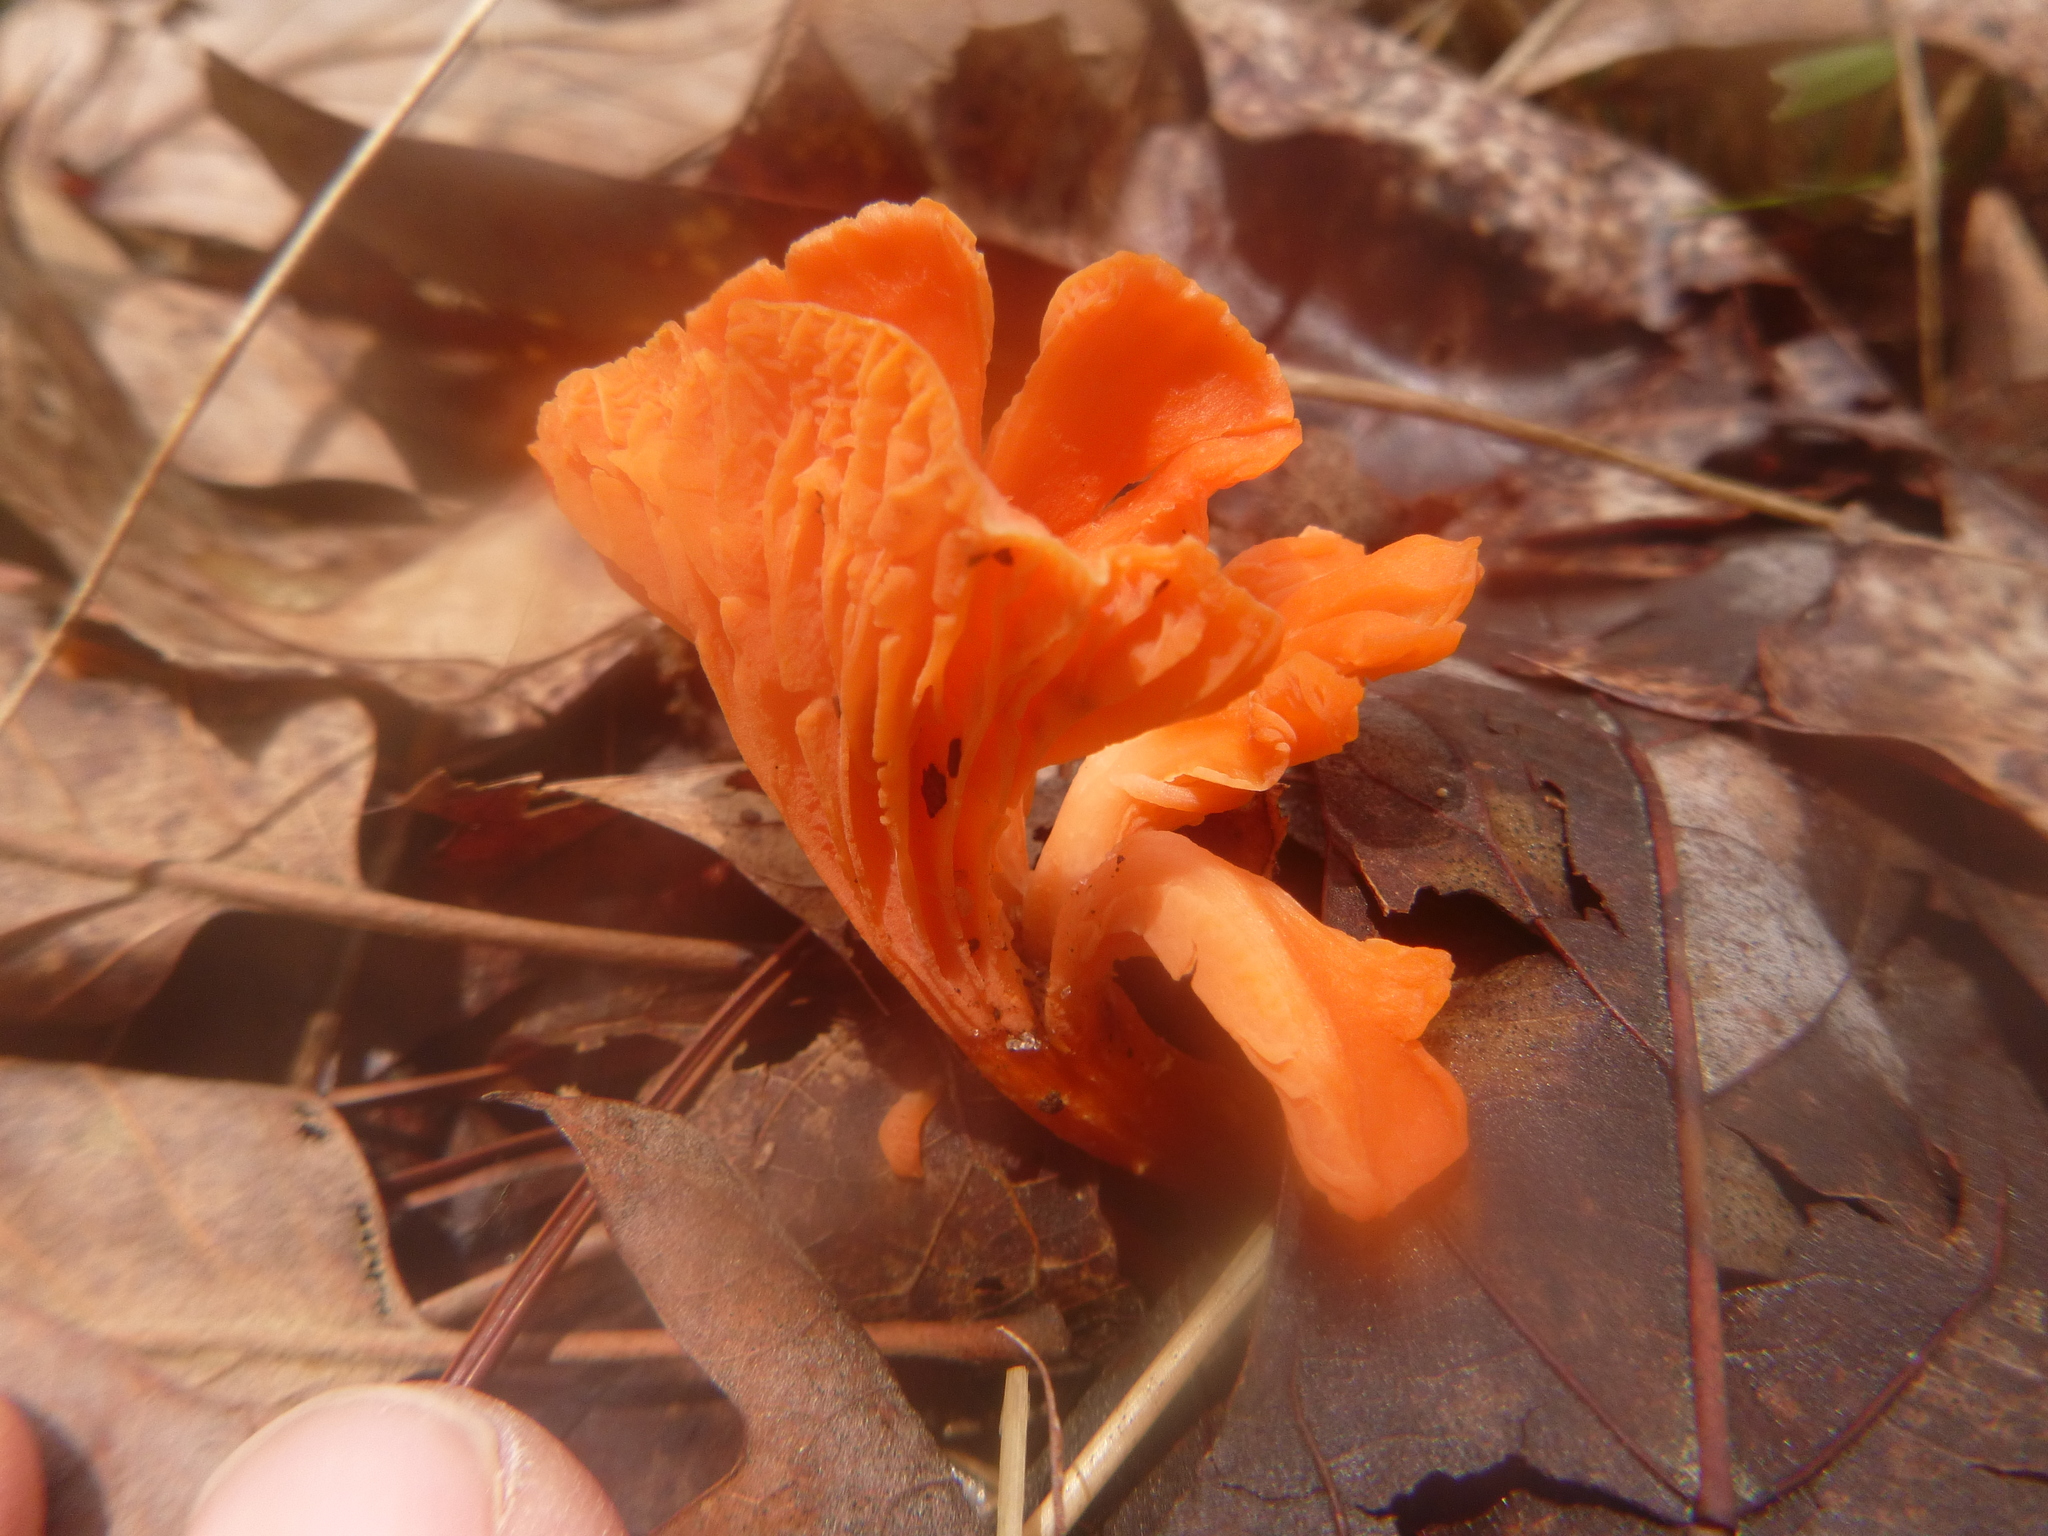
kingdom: Fungi
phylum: Basidiomycota
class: Agaricomycetes
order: Cantharellales
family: Hydnaceae
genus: Cantharellus
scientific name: Cantharellus cinnabarinus
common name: Cinnabar chanterelle
